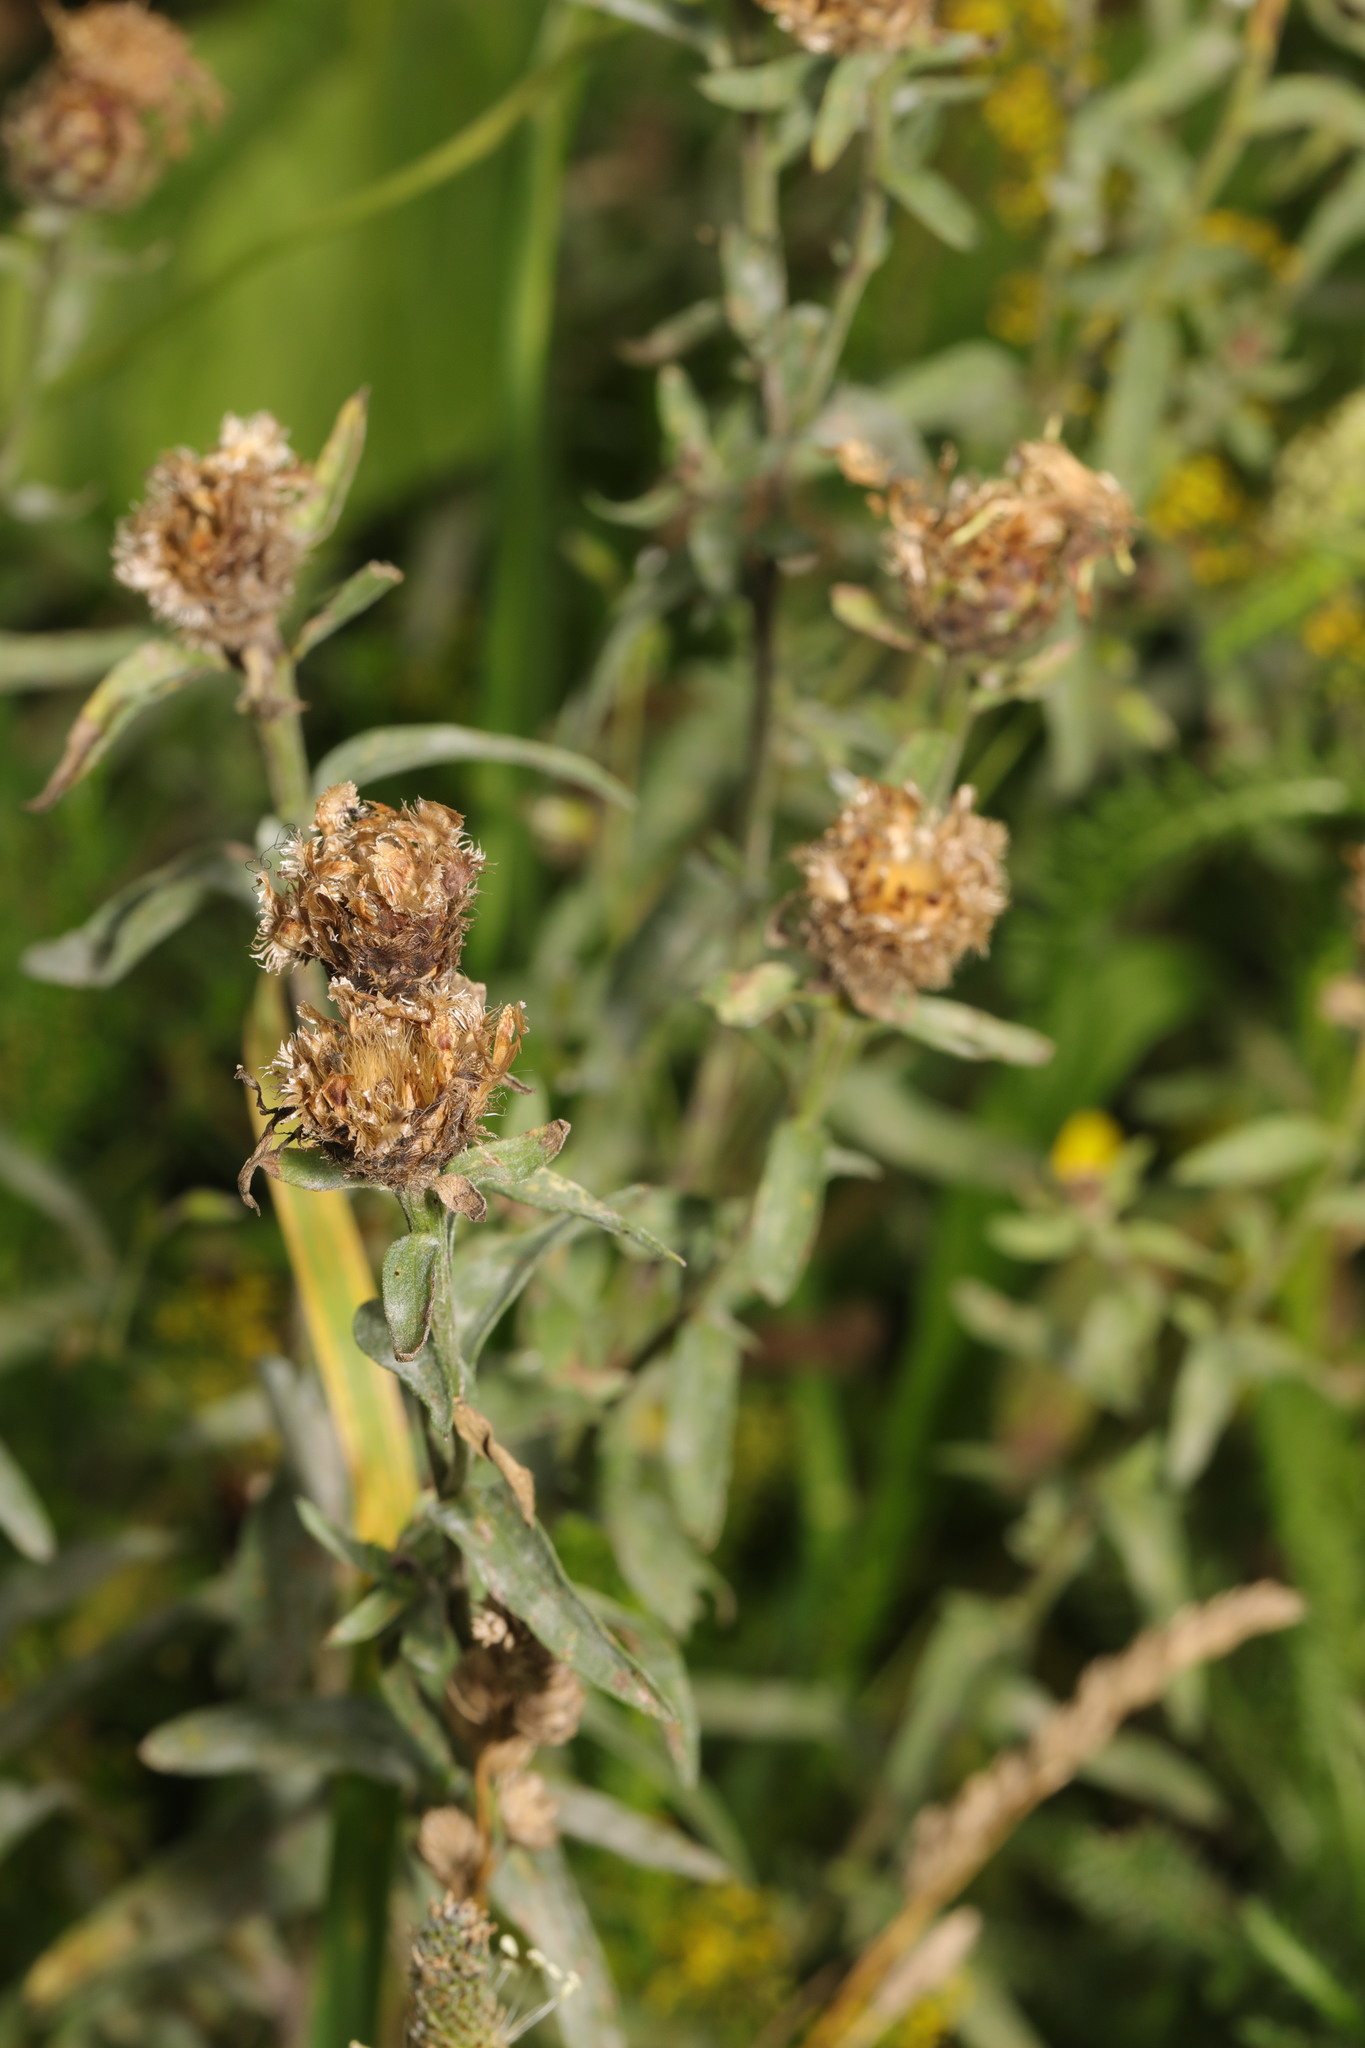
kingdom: Plantae
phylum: Tracheophyta
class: Magnoliopsida
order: Asterales
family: Asteraceae
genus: Centaurea
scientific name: Centaurea nigra
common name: Lesser knapweed
